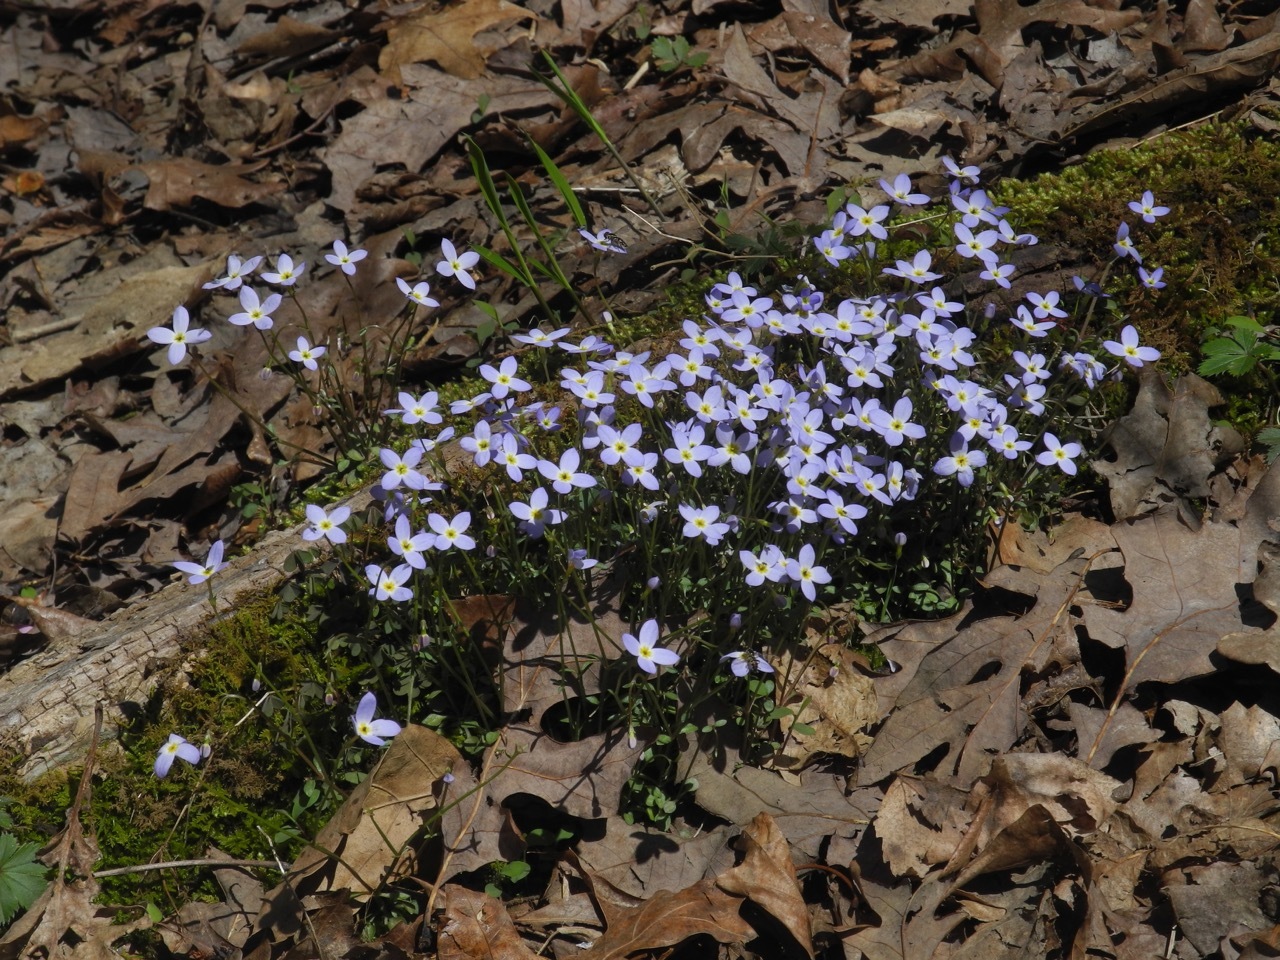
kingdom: Plantae
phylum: Tracheophyta
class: Magnoliopsida
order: Gentianales
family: Rubiaceae
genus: Houstonia
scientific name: Houstonia caerulea
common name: Bluets
